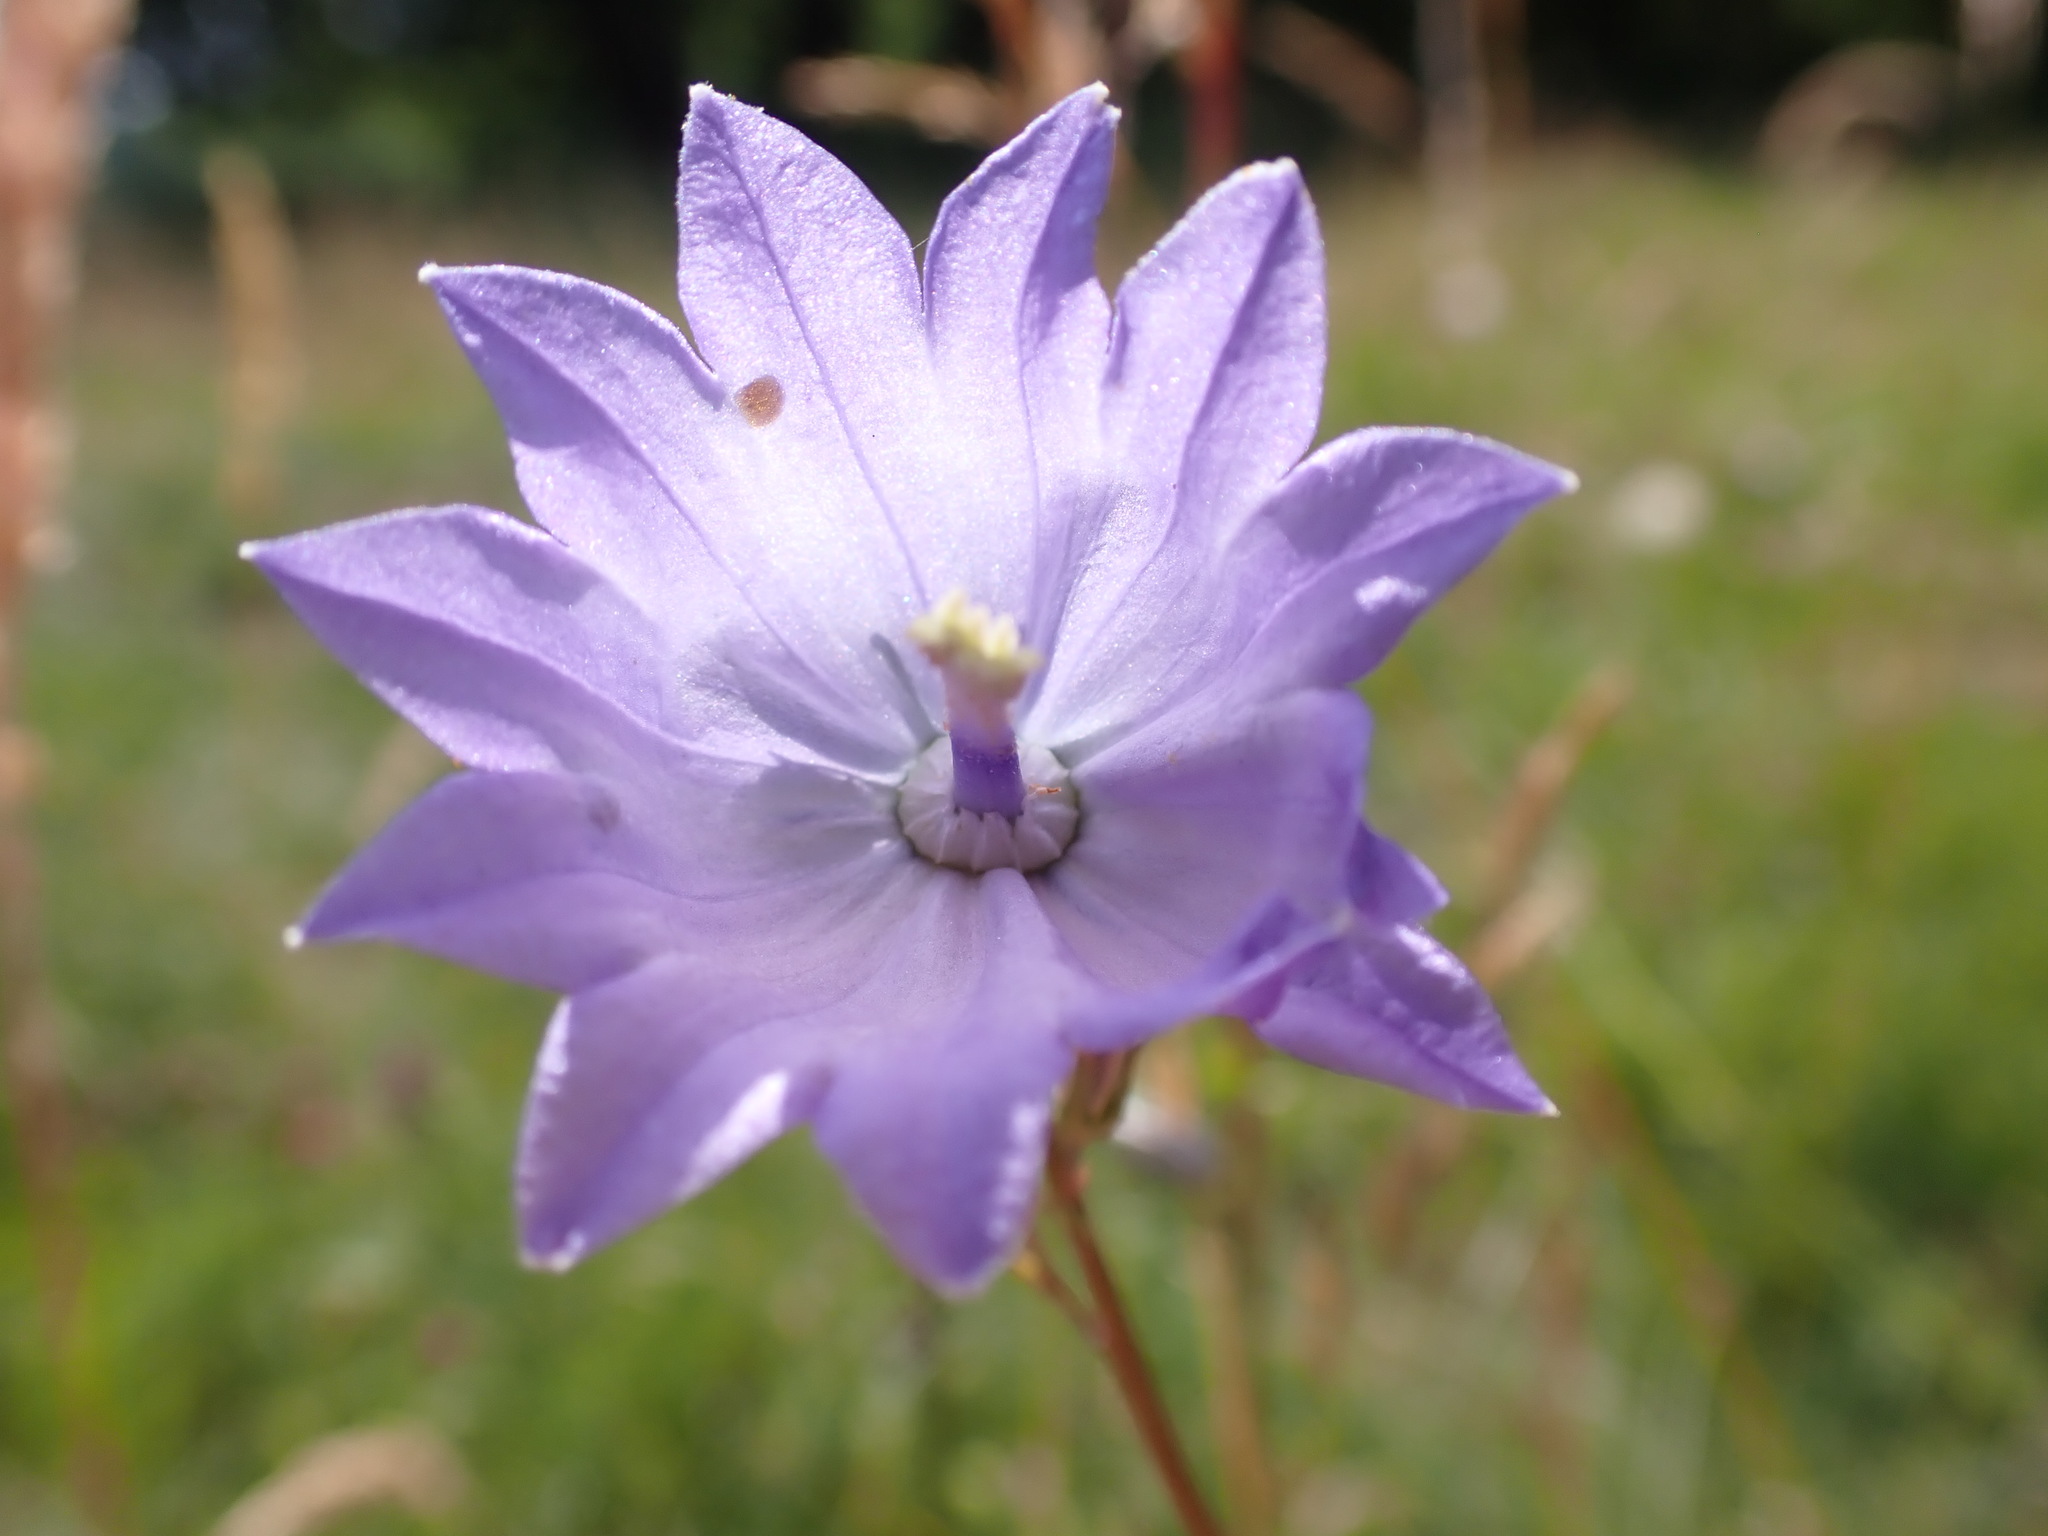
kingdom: Plantae
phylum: Tracheophyta
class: Magnoliopsida
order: Asterales
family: Campanulaceae
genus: Campanula
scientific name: Campanula rotundifolia
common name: Harebell
